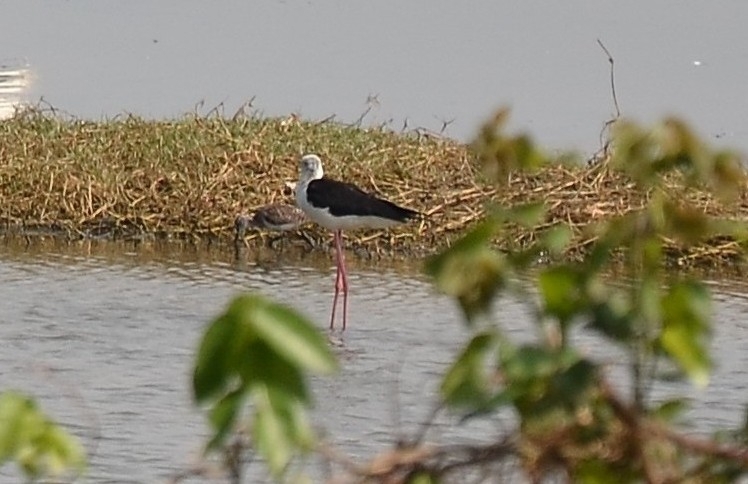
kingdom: Animalia
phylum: Chordata
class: Aves
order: Charadriiformes
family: Recurvirostridae
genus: Himantopus
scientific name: Himantopus himantopus
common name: Black-winged stilt
